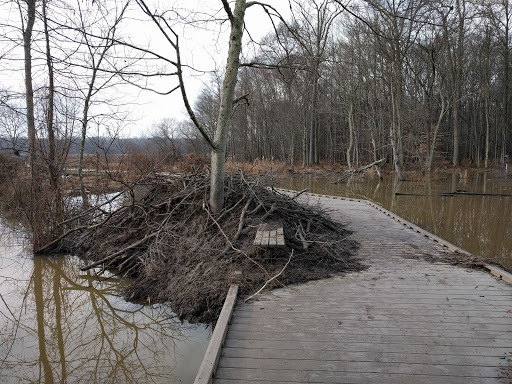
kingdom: Animalia
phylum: Chordata
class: Mammalia
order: Rodentia
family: Castoridae
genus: Castor
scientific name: Castor canadensis
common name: American beaver
